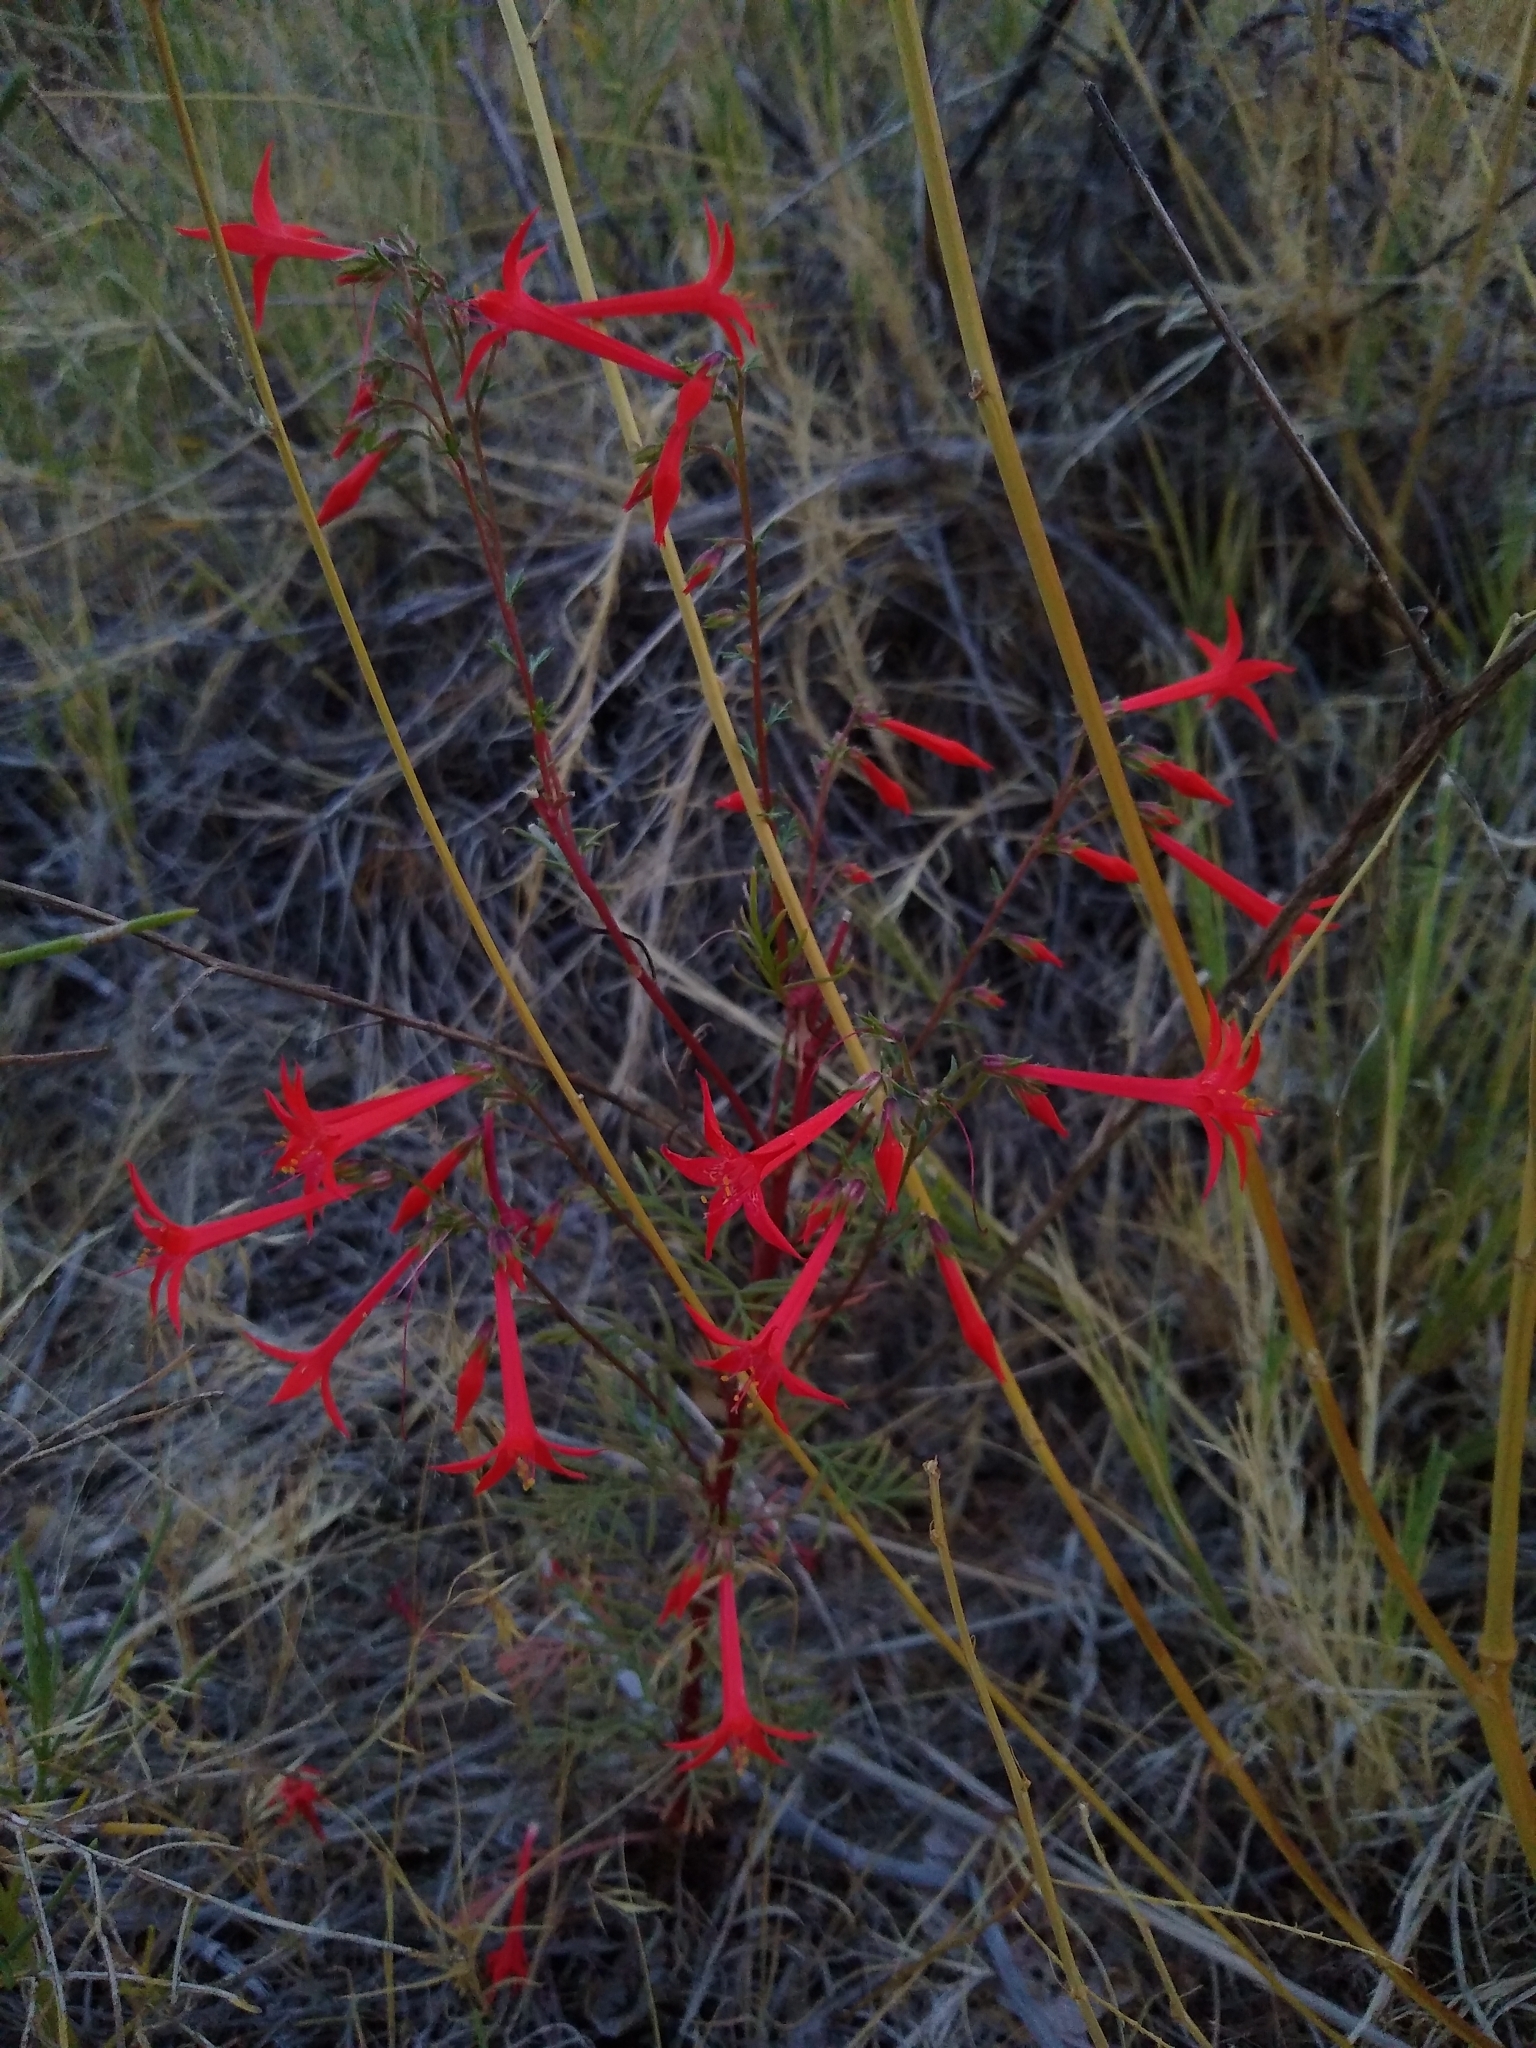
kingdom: Plantae
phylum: Tracheophyta
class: Magnoliopsida
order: Ericales
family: Polemoniaceae
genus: Ipomopsis
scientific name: Ipomopsis aggregata
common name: Scarlet gilia
